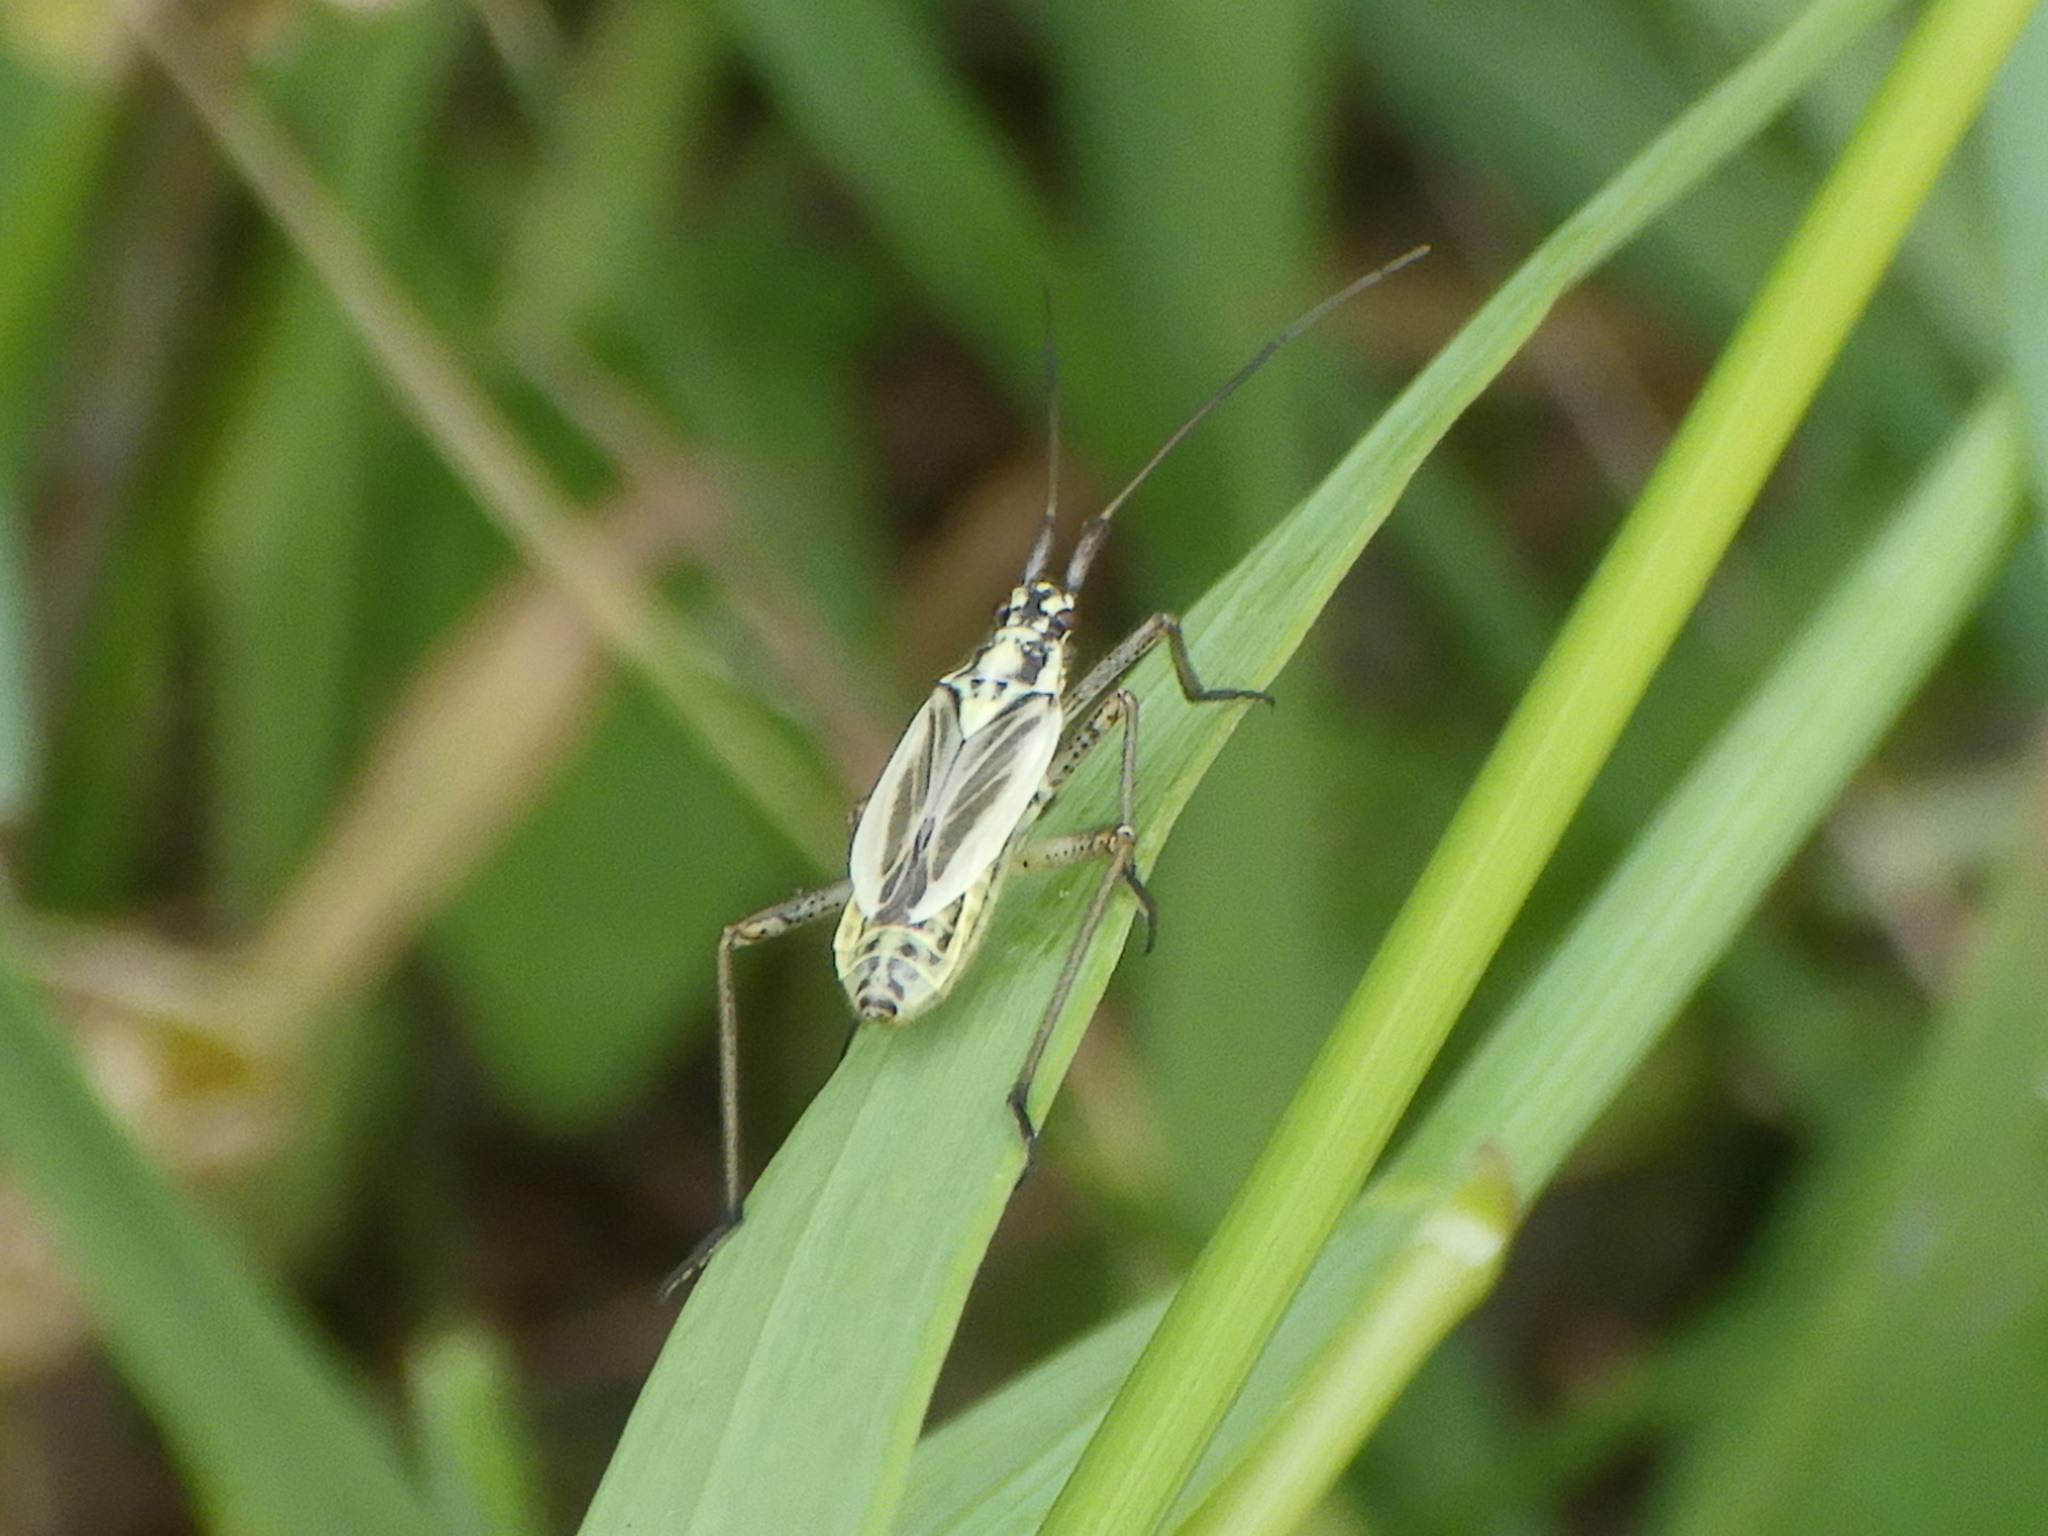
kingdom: Animalia
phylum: Arthropoda
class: Insecta
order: Hemiptera
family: Miridae
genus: Leptopterna
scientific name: Leptopterna dolabrata
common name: Meadow plant bug
